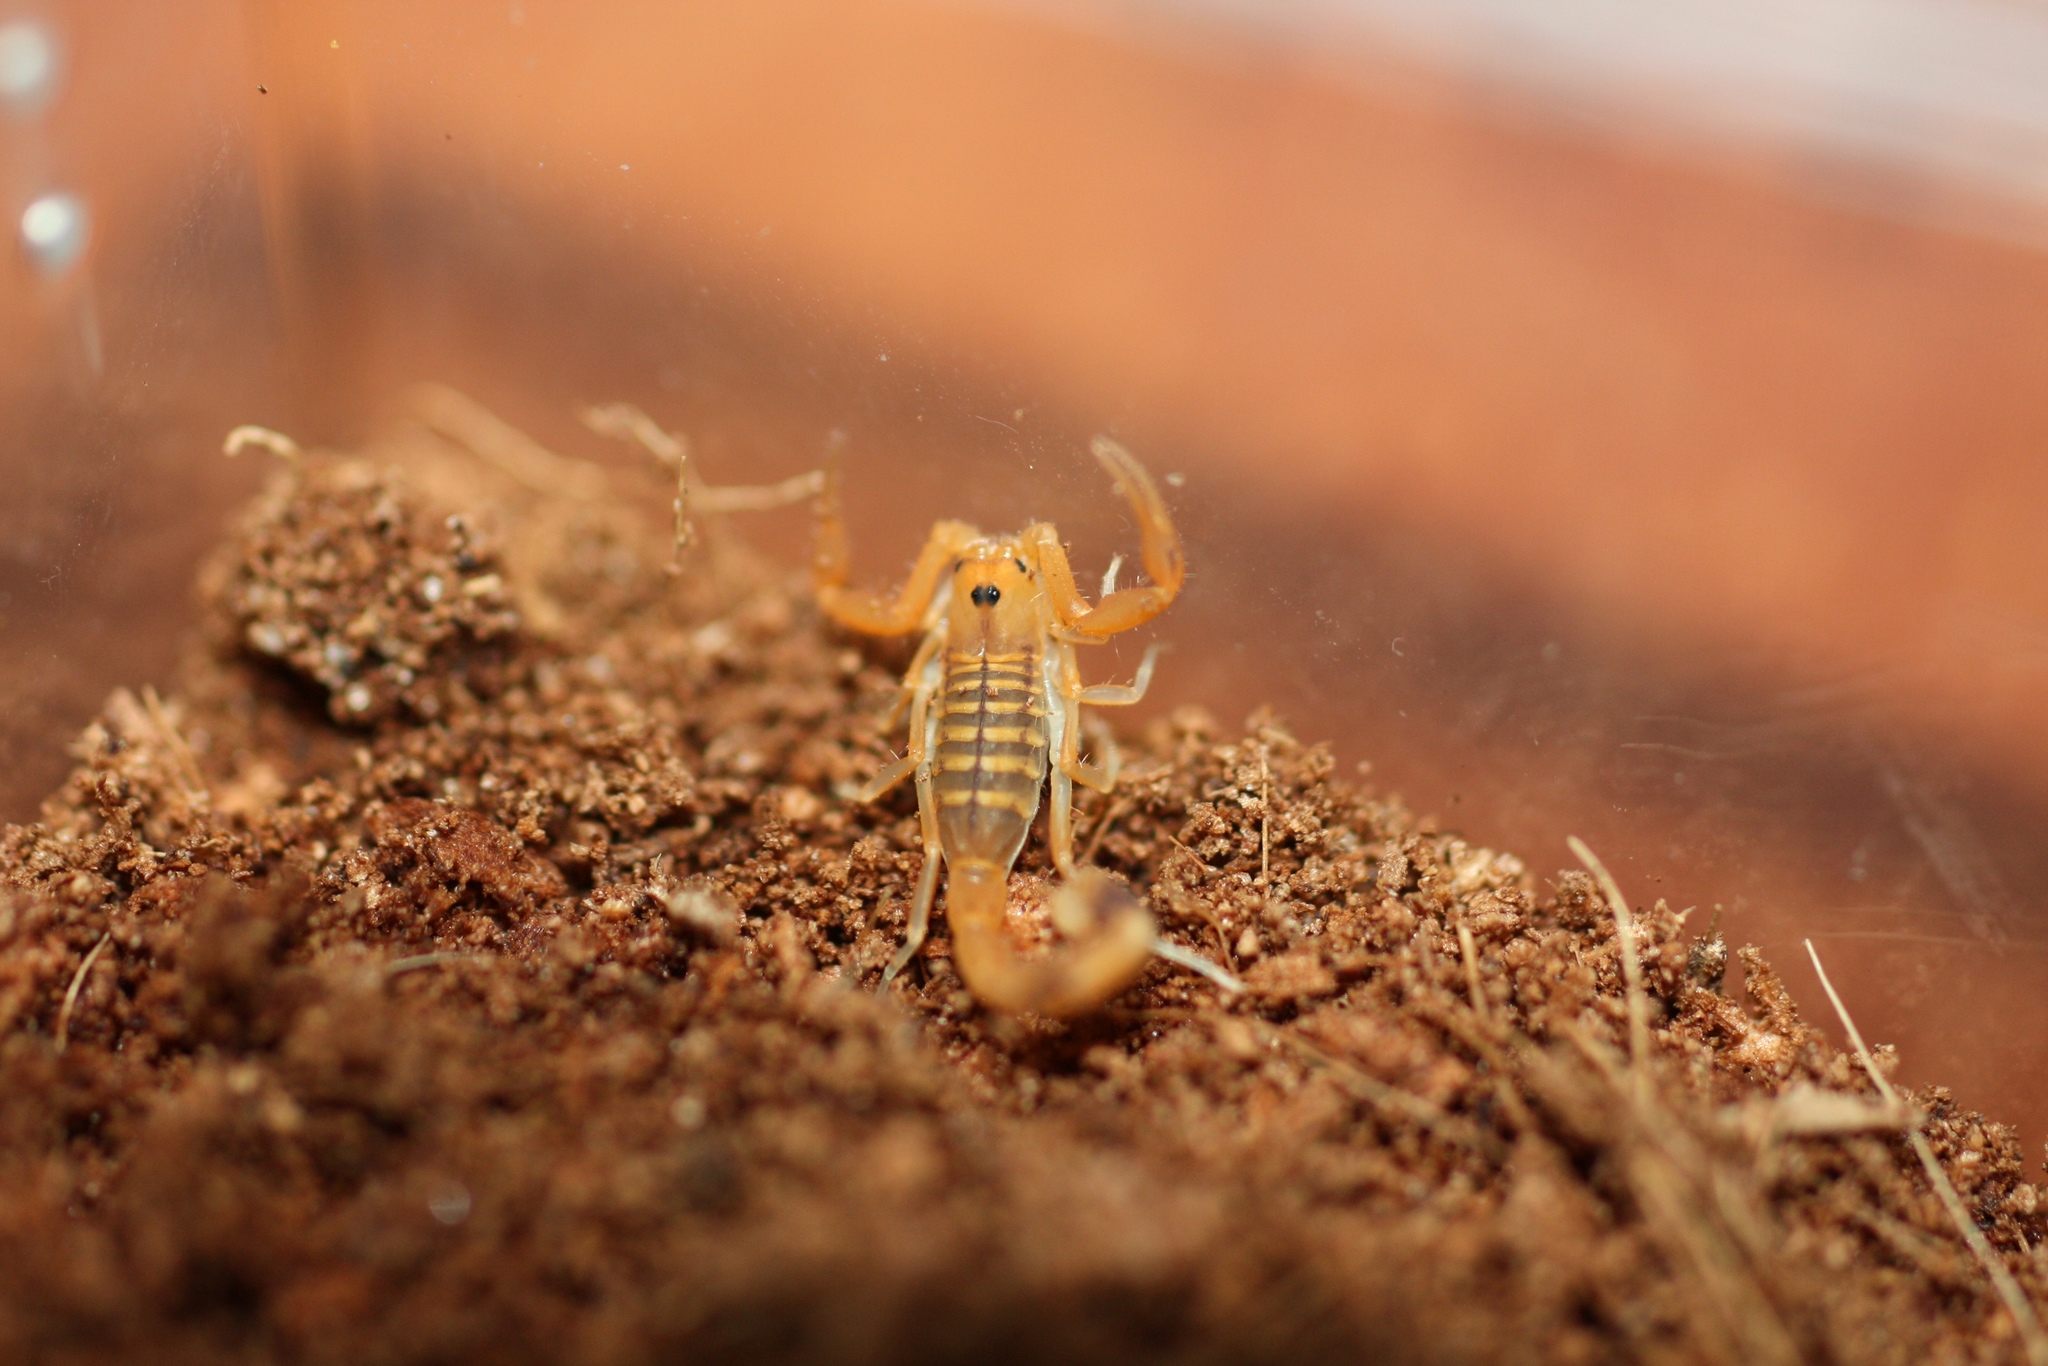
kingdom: Animalia
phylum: Arthropoda
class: Arachnida
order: Scorpiones
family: Buthidae
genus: Uroplectes
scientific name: Uroplectes carinatus
